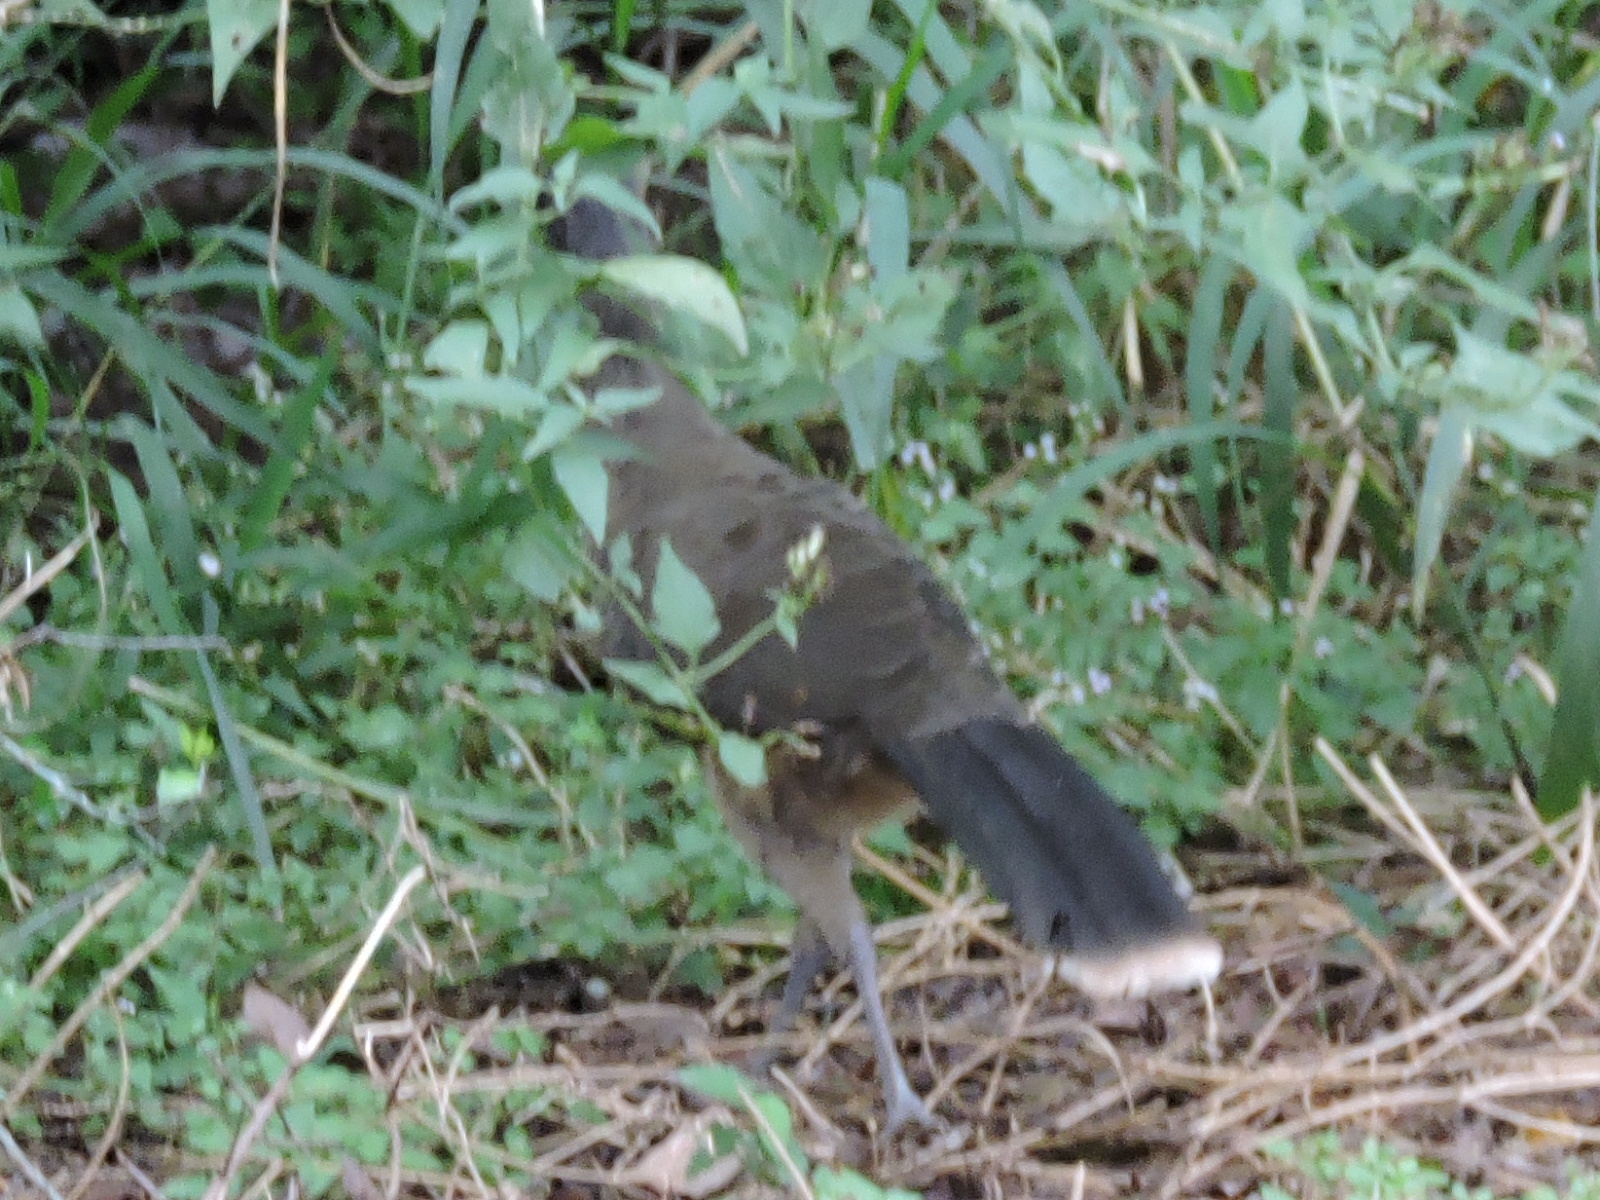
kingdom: Animalia
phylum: Chordata
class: Aves
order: Galliformes
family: Cracidae
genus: Ortalis
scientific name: Ortalis vetula
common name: Plain chachalaca
